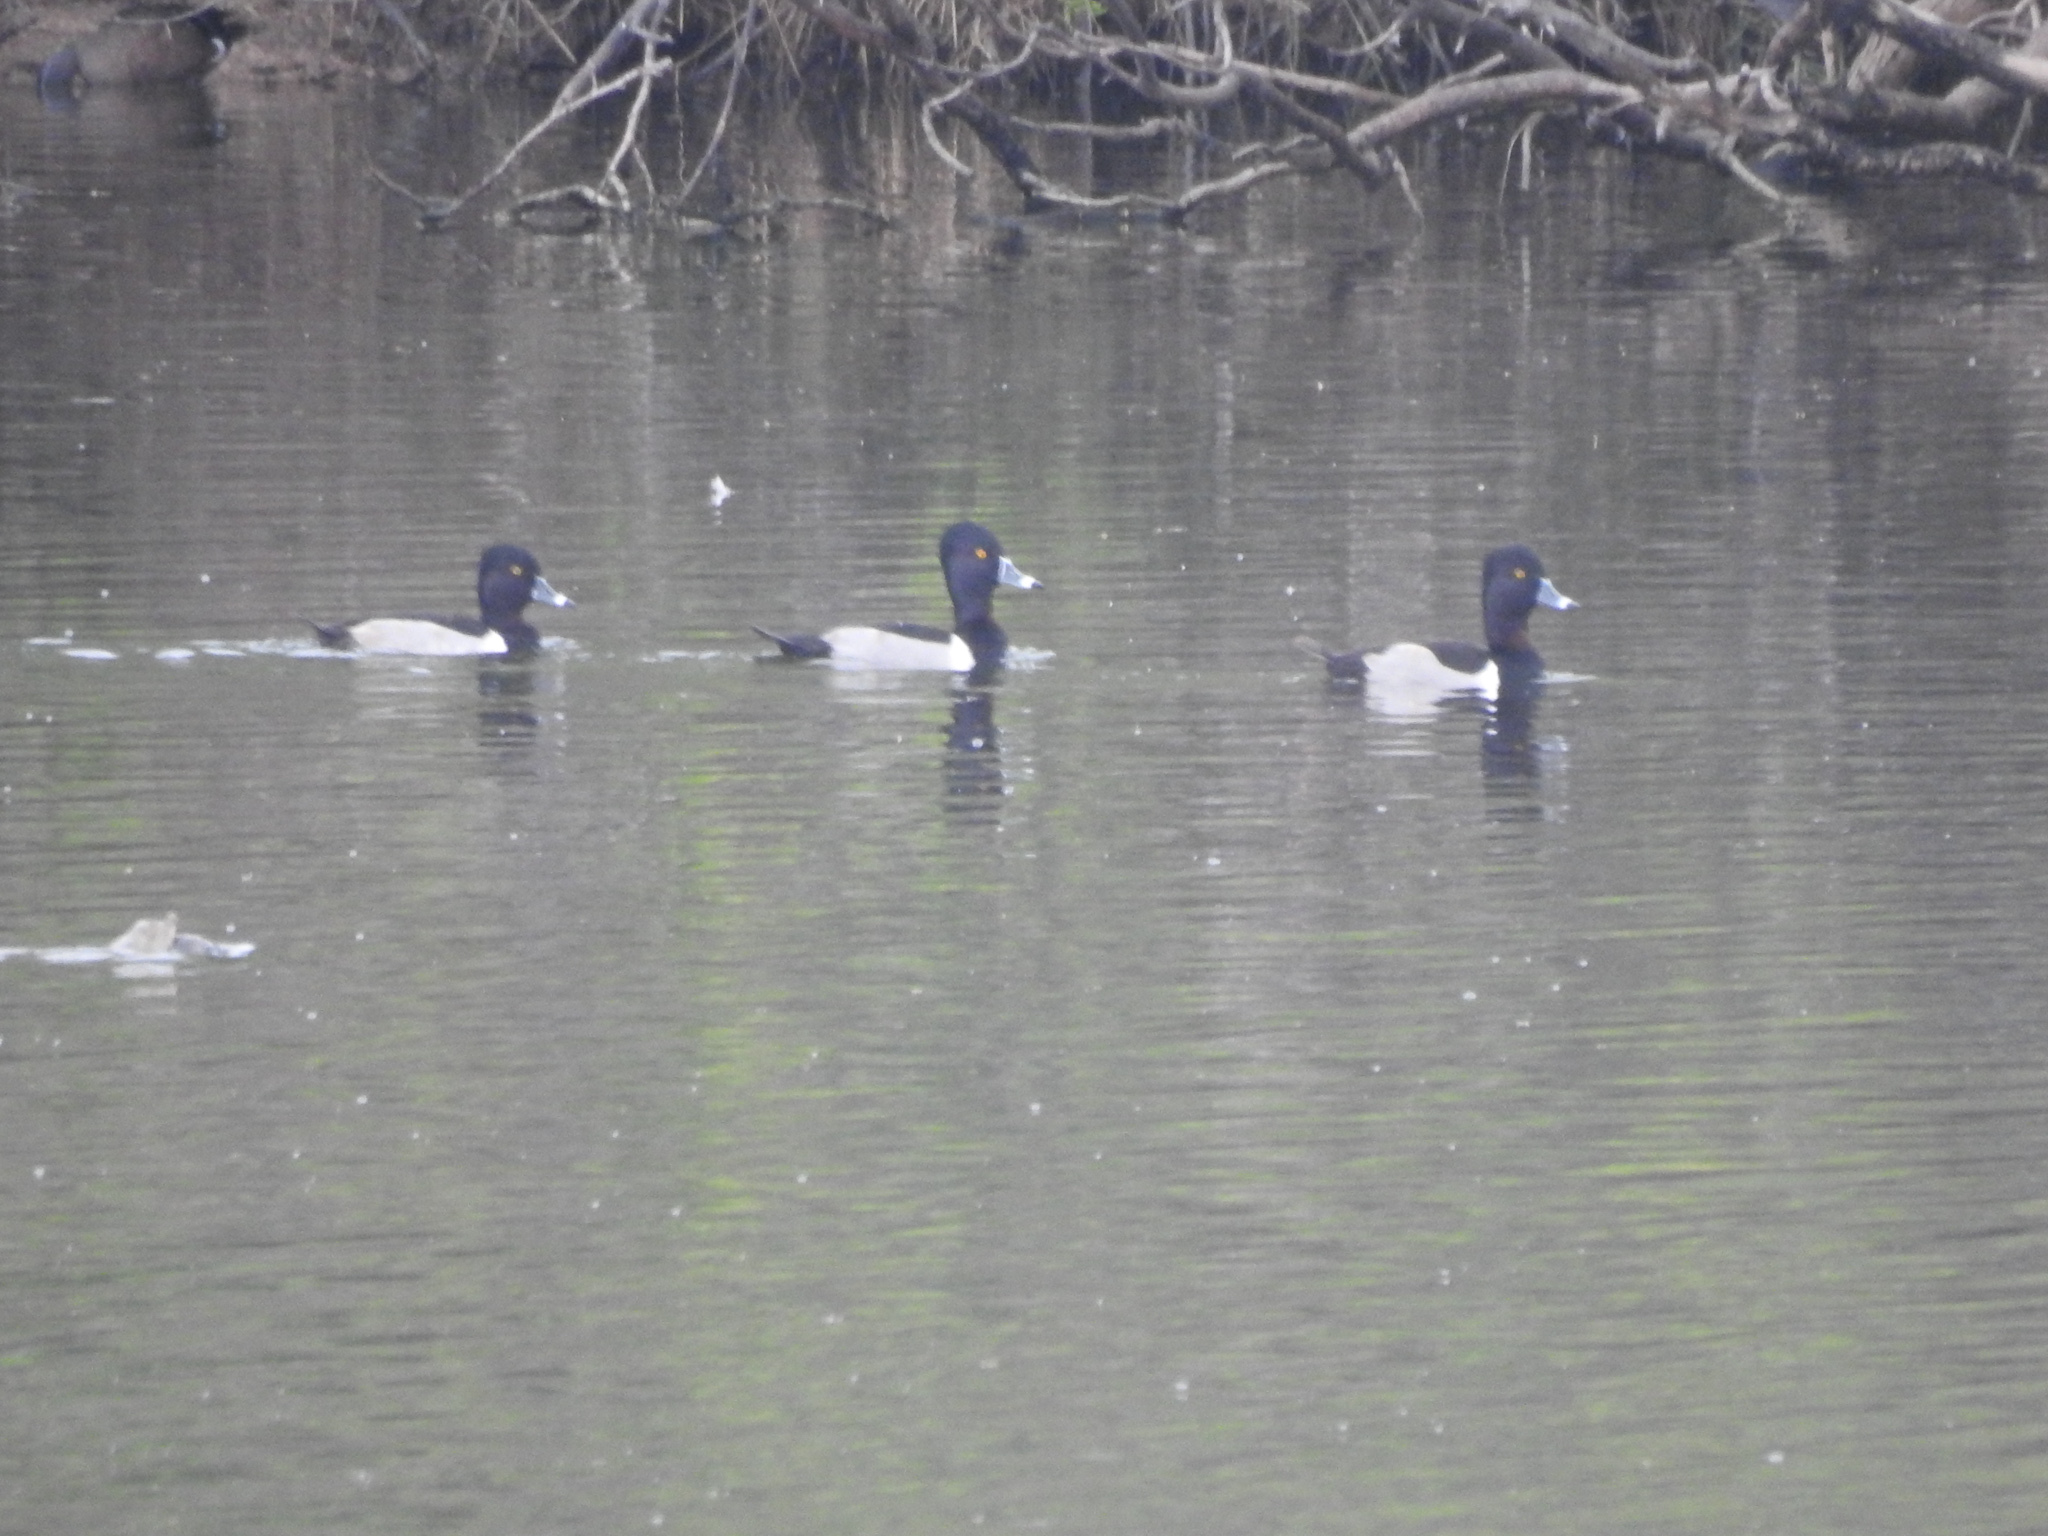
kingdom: Animalia
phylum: Chordata
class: Aves
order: Anseriformes
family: Anatidae
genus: Aythya
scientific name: Aythya collaris
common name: Ring-necked duck
